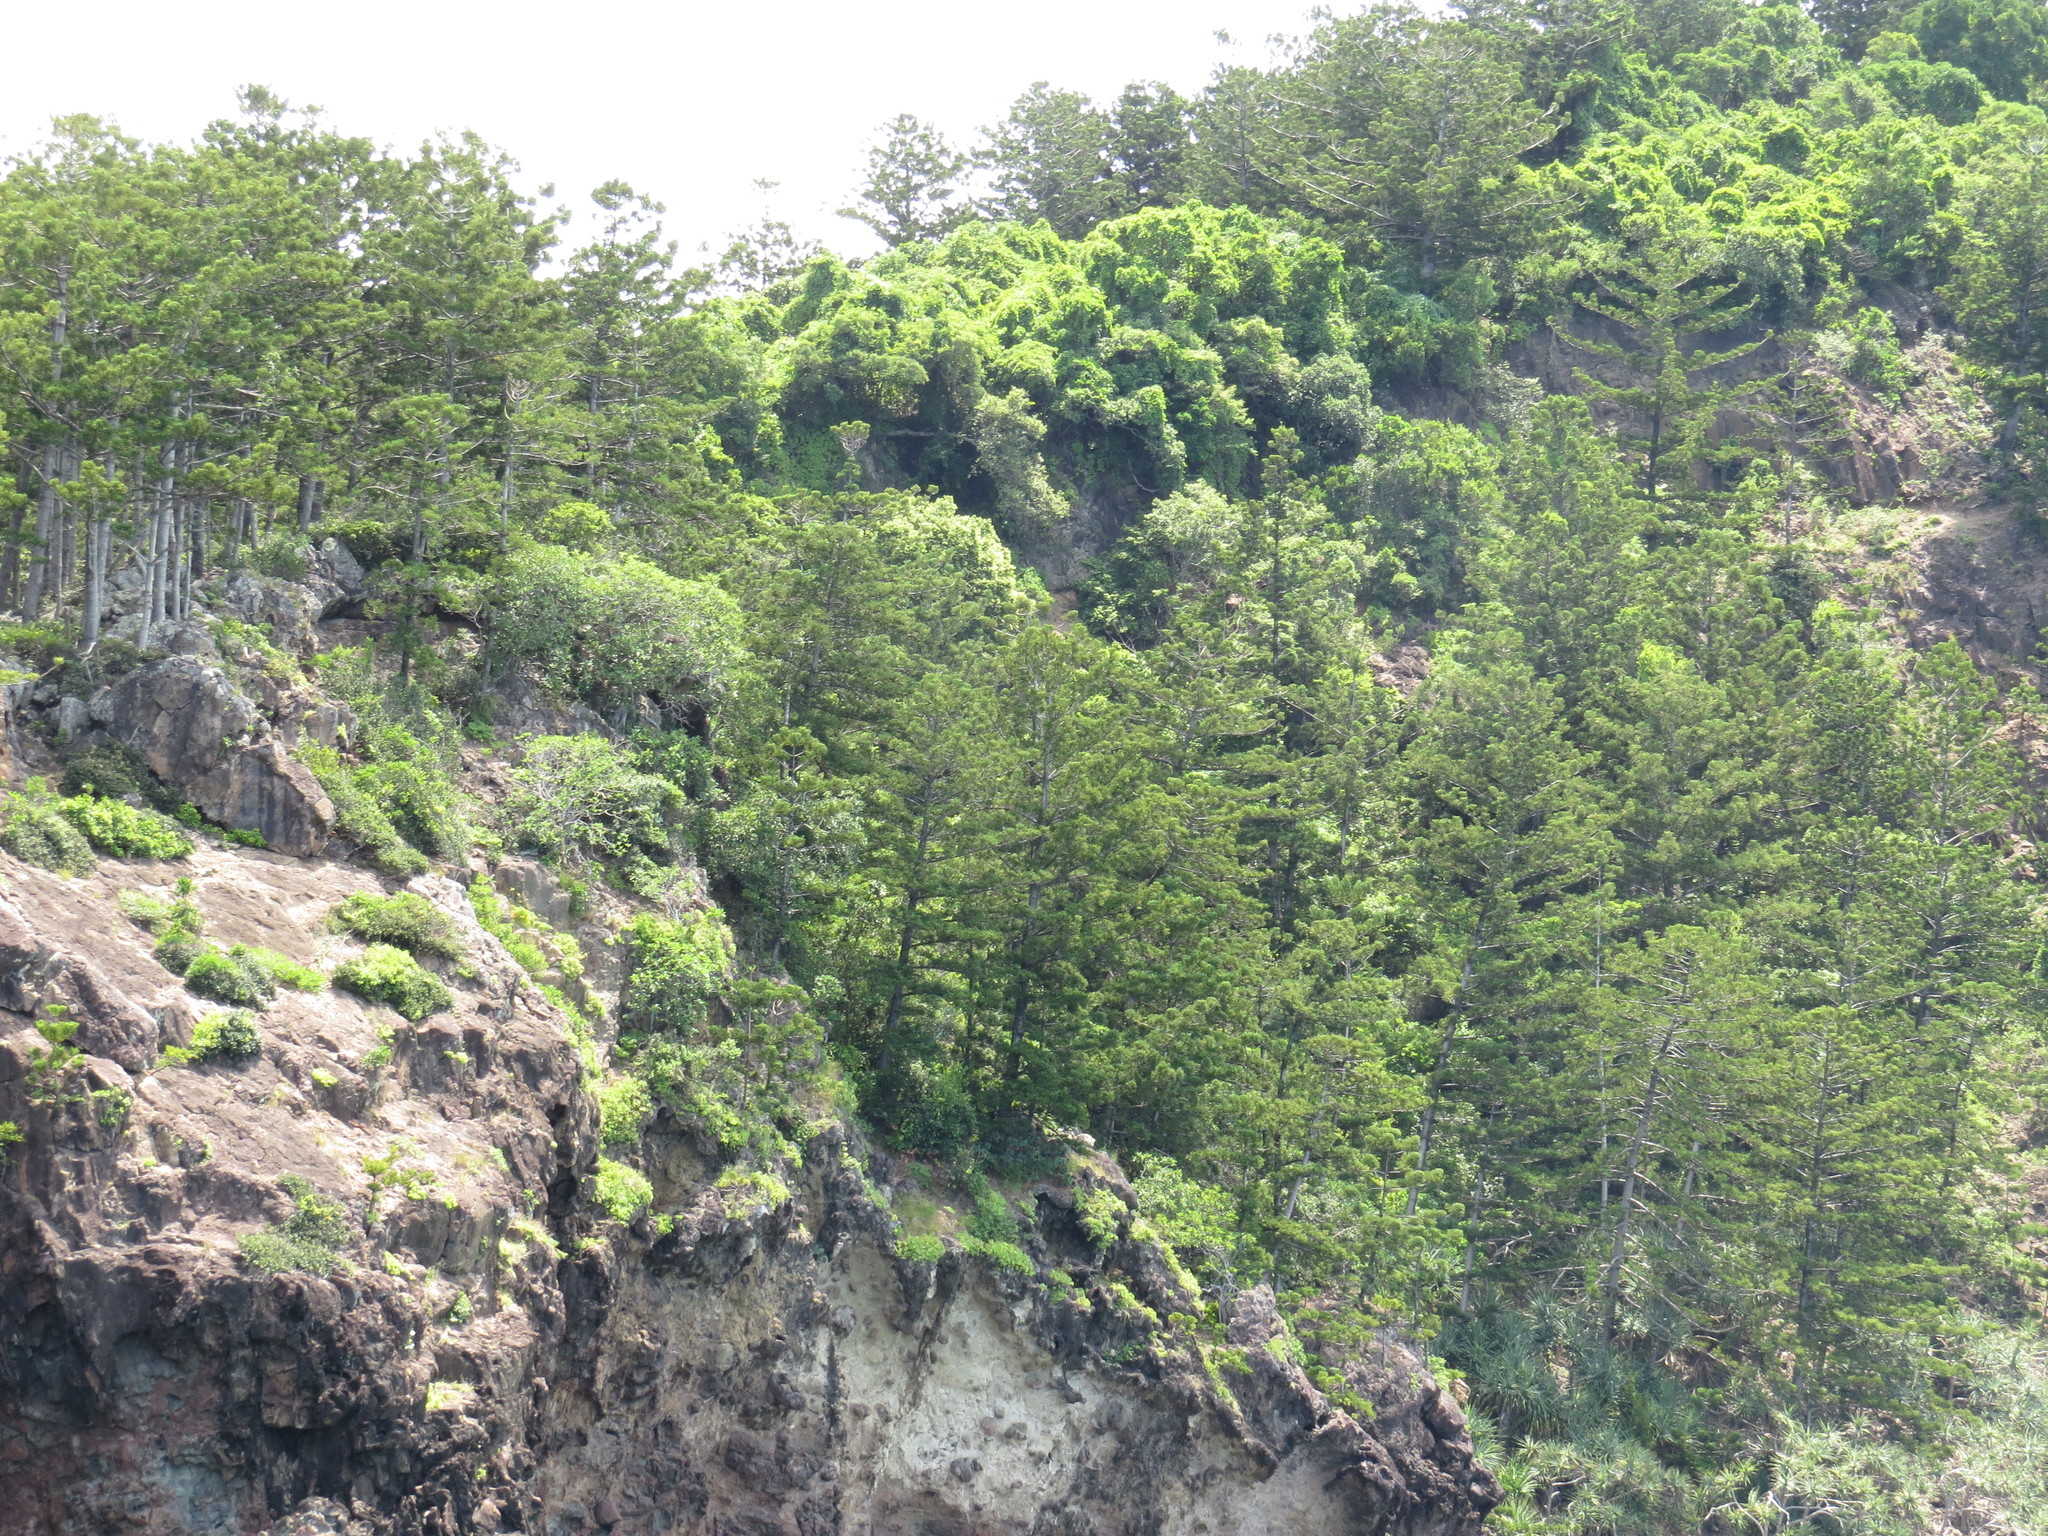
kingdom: Plantae
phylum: Tracheophyta
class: Pinopsida
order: Pinales
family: Araucariaceae
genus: Araucaria
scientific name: Araucaria cunninghamii
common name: Colonial pine
